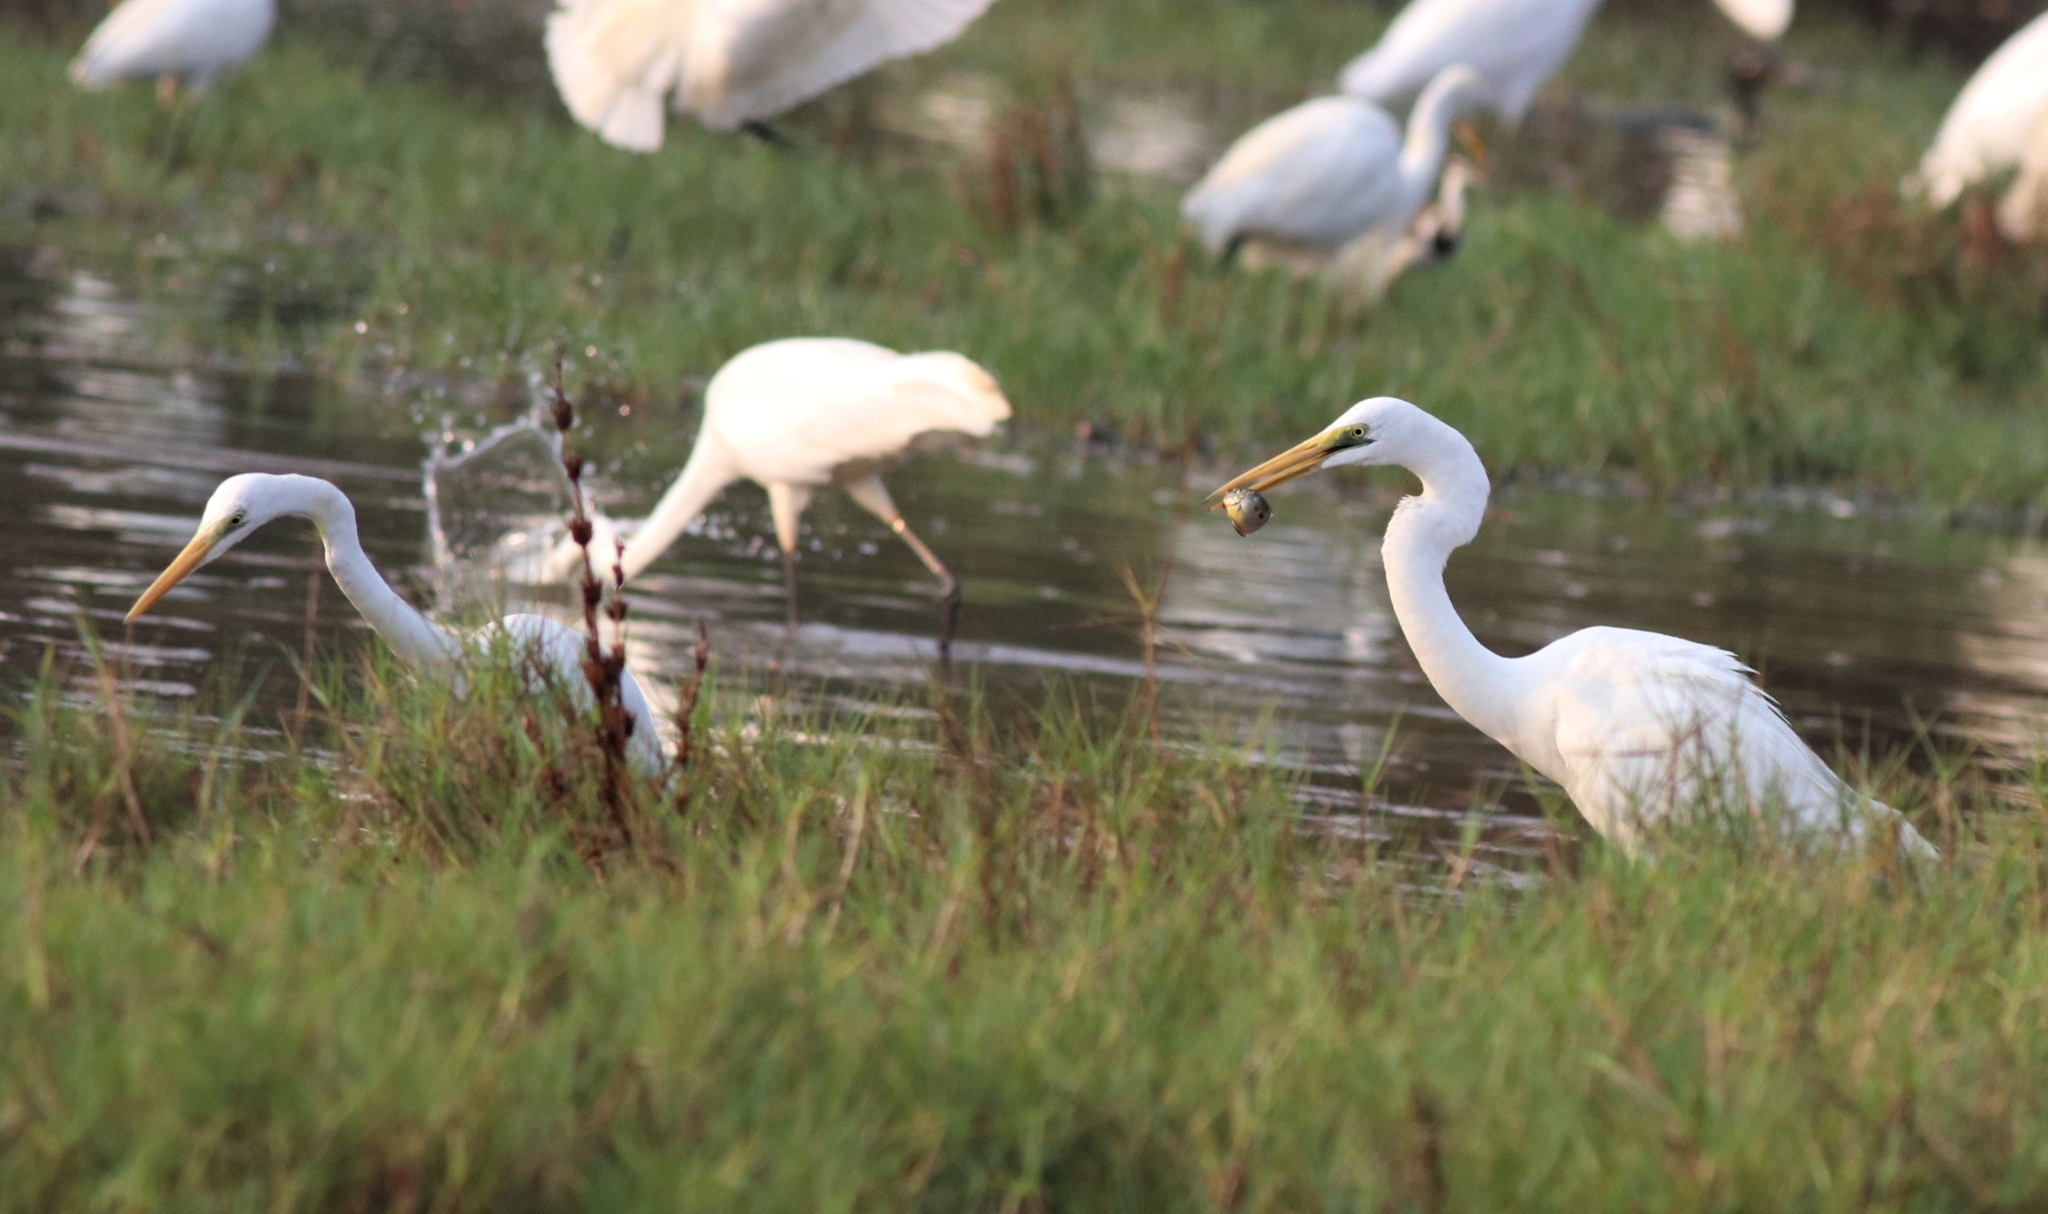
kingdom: Animalia
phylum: Chordata
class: Aves
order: Pelecaniformes
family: Ardeidae
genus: Ardea
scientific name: Ardea alba
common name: Great egret
